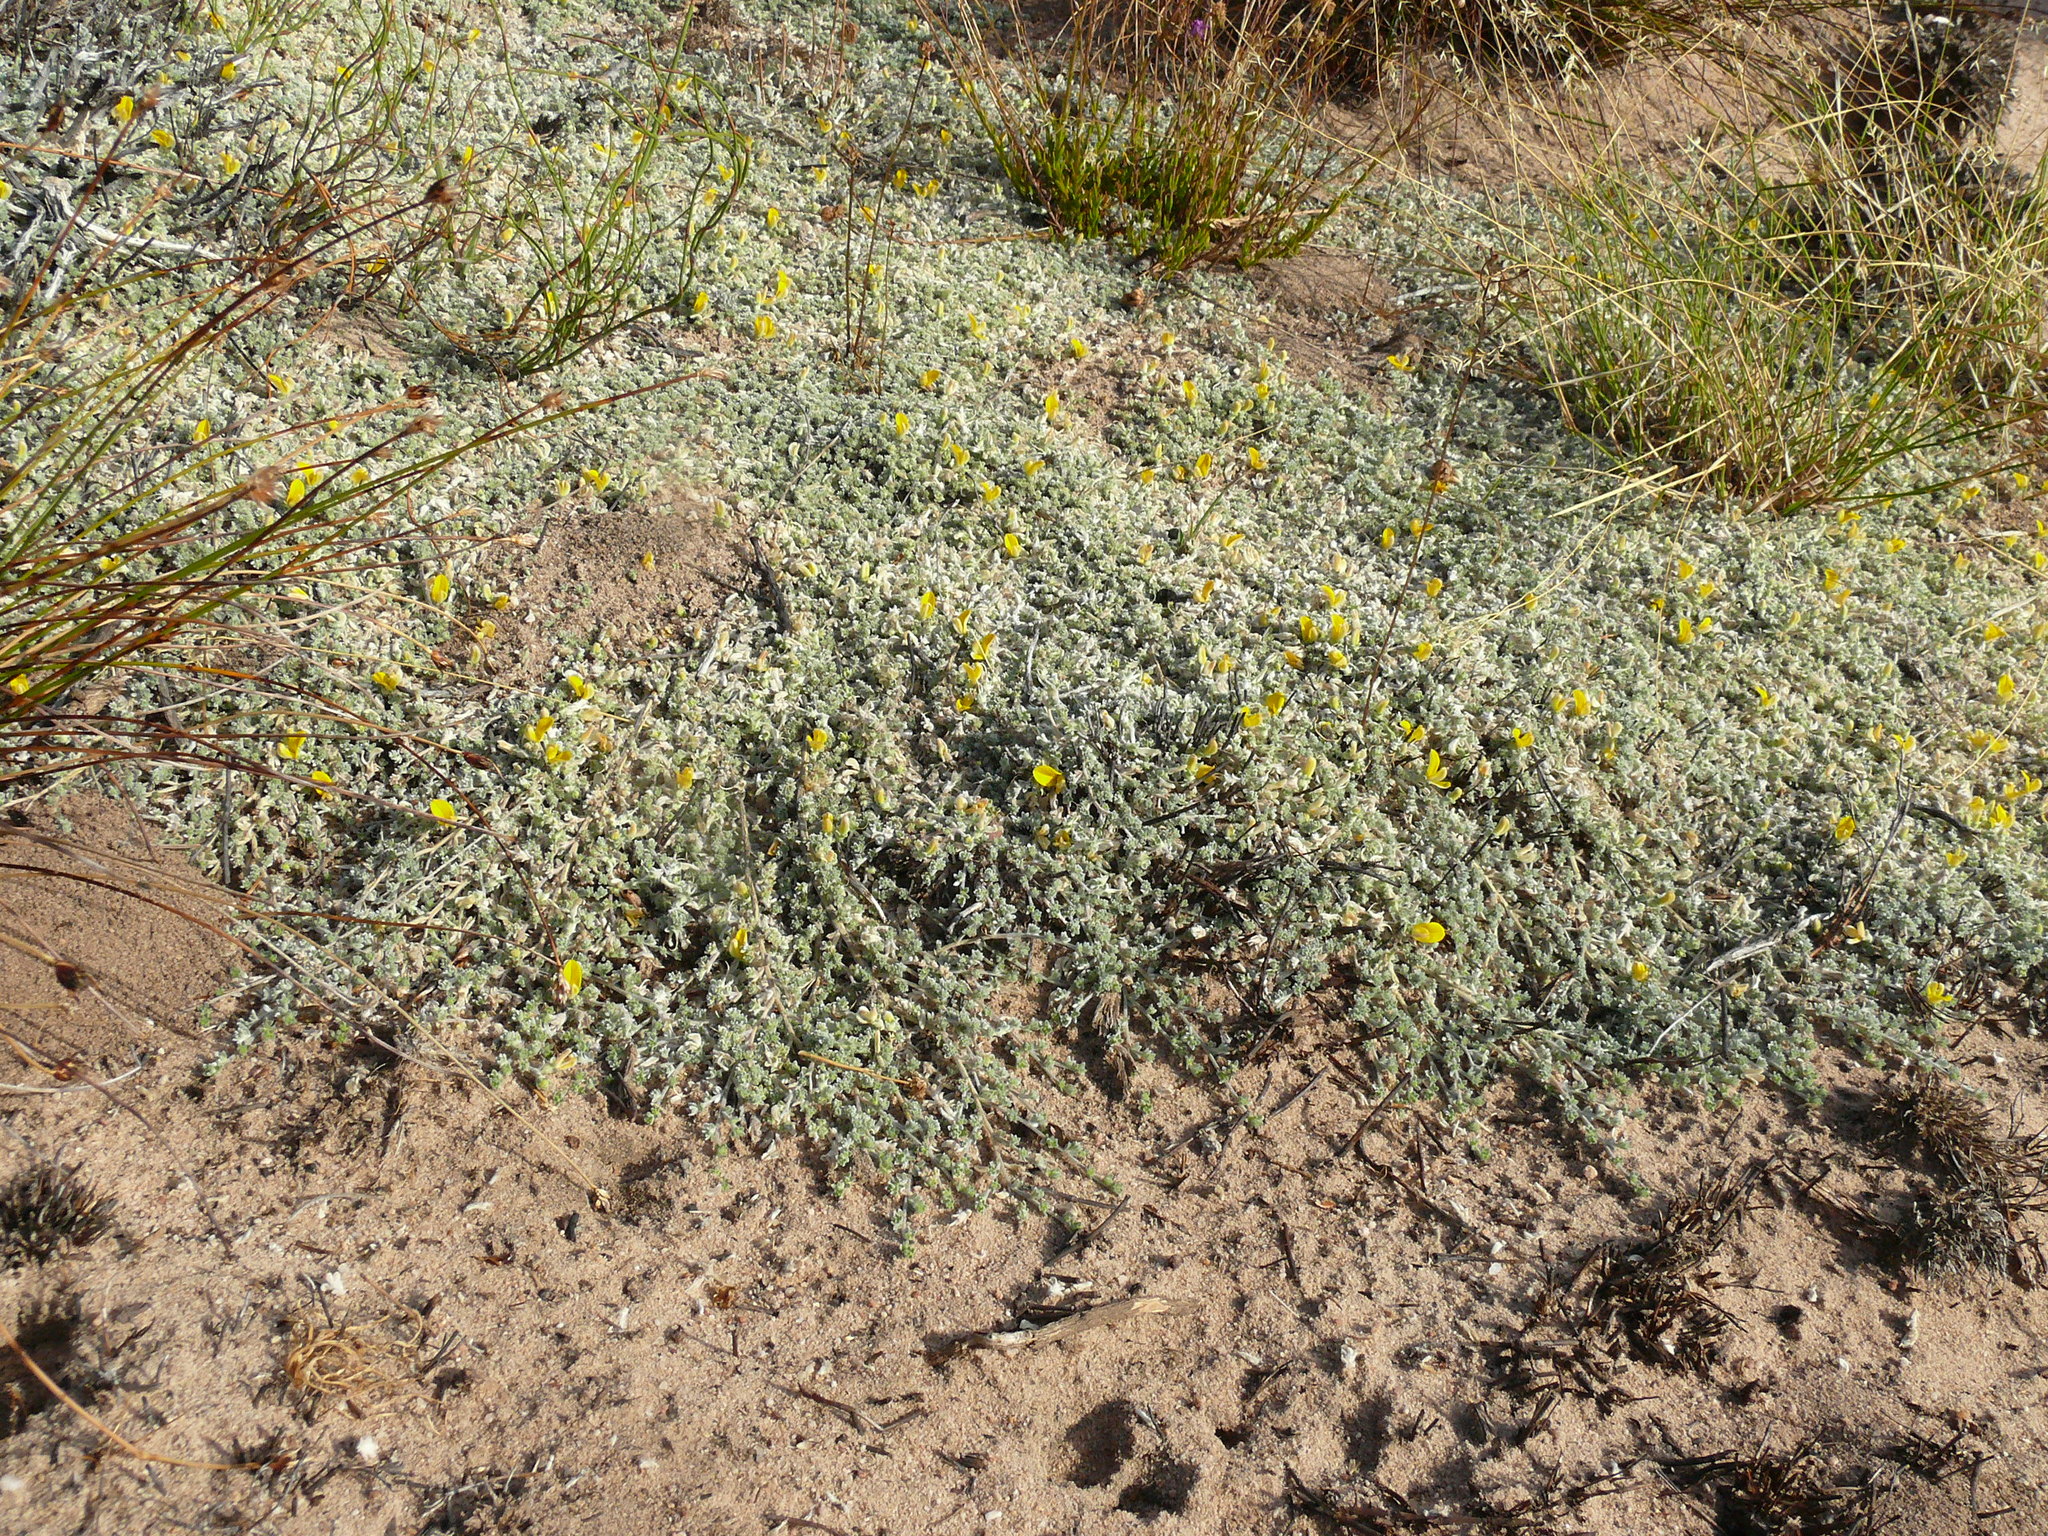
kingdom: Plantae
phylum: Tracheophyta
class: Magnoliopsida
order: Fabales
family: Fabaceae
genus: Aspalathus
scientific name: Aspalathus bodkinii
